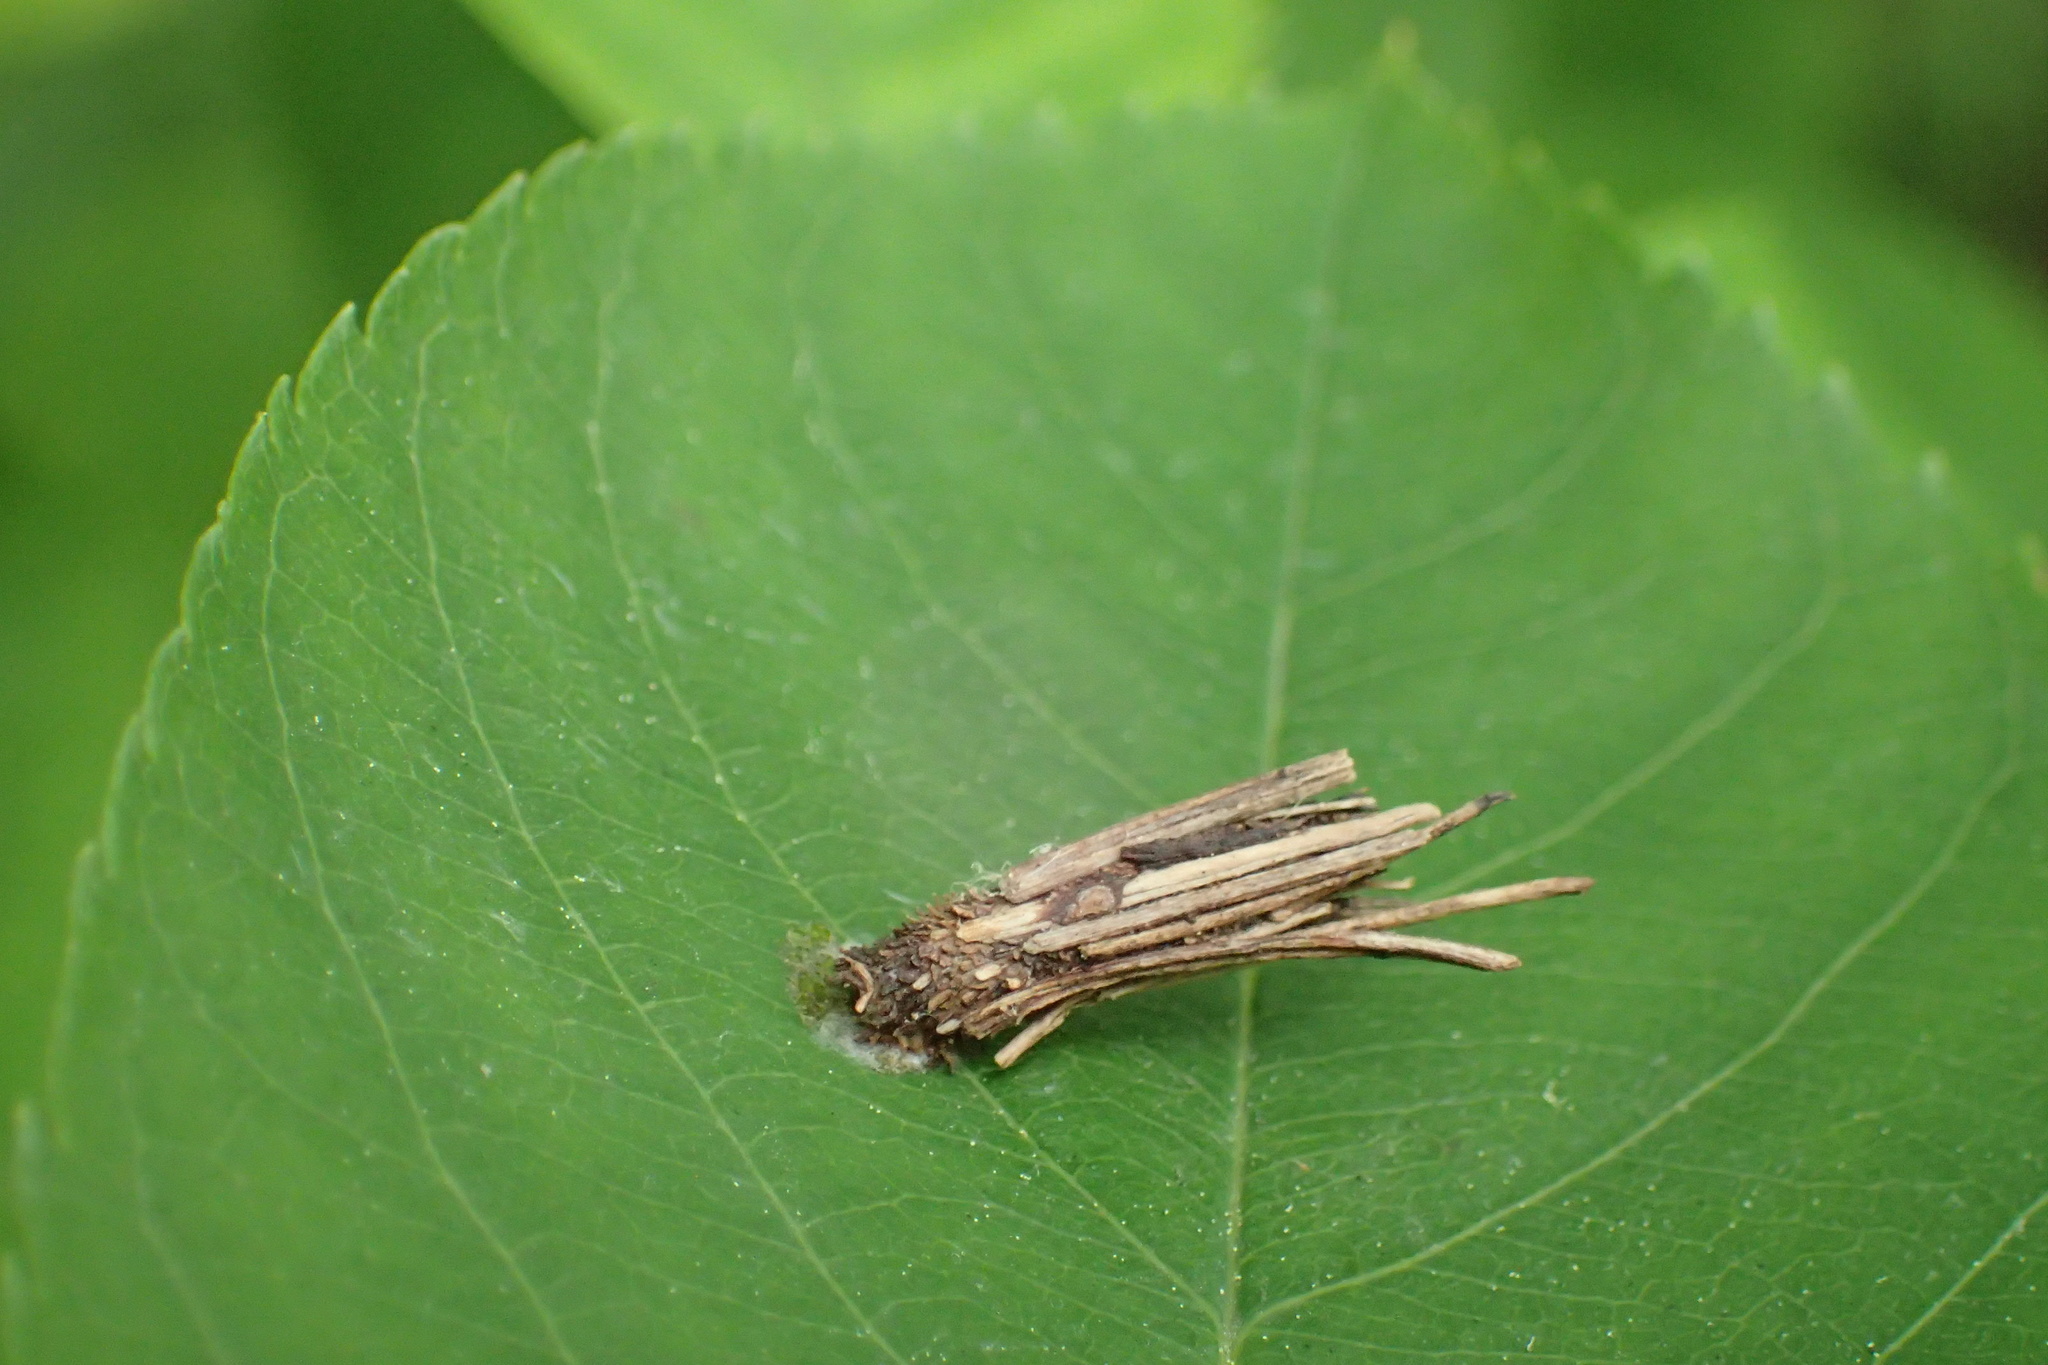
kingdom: Animalia
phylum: Arthropoda
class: Insecta
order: Lepidoptera
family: Psychidae
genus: Psyche
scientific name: Psyche casta
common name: Common sweep
